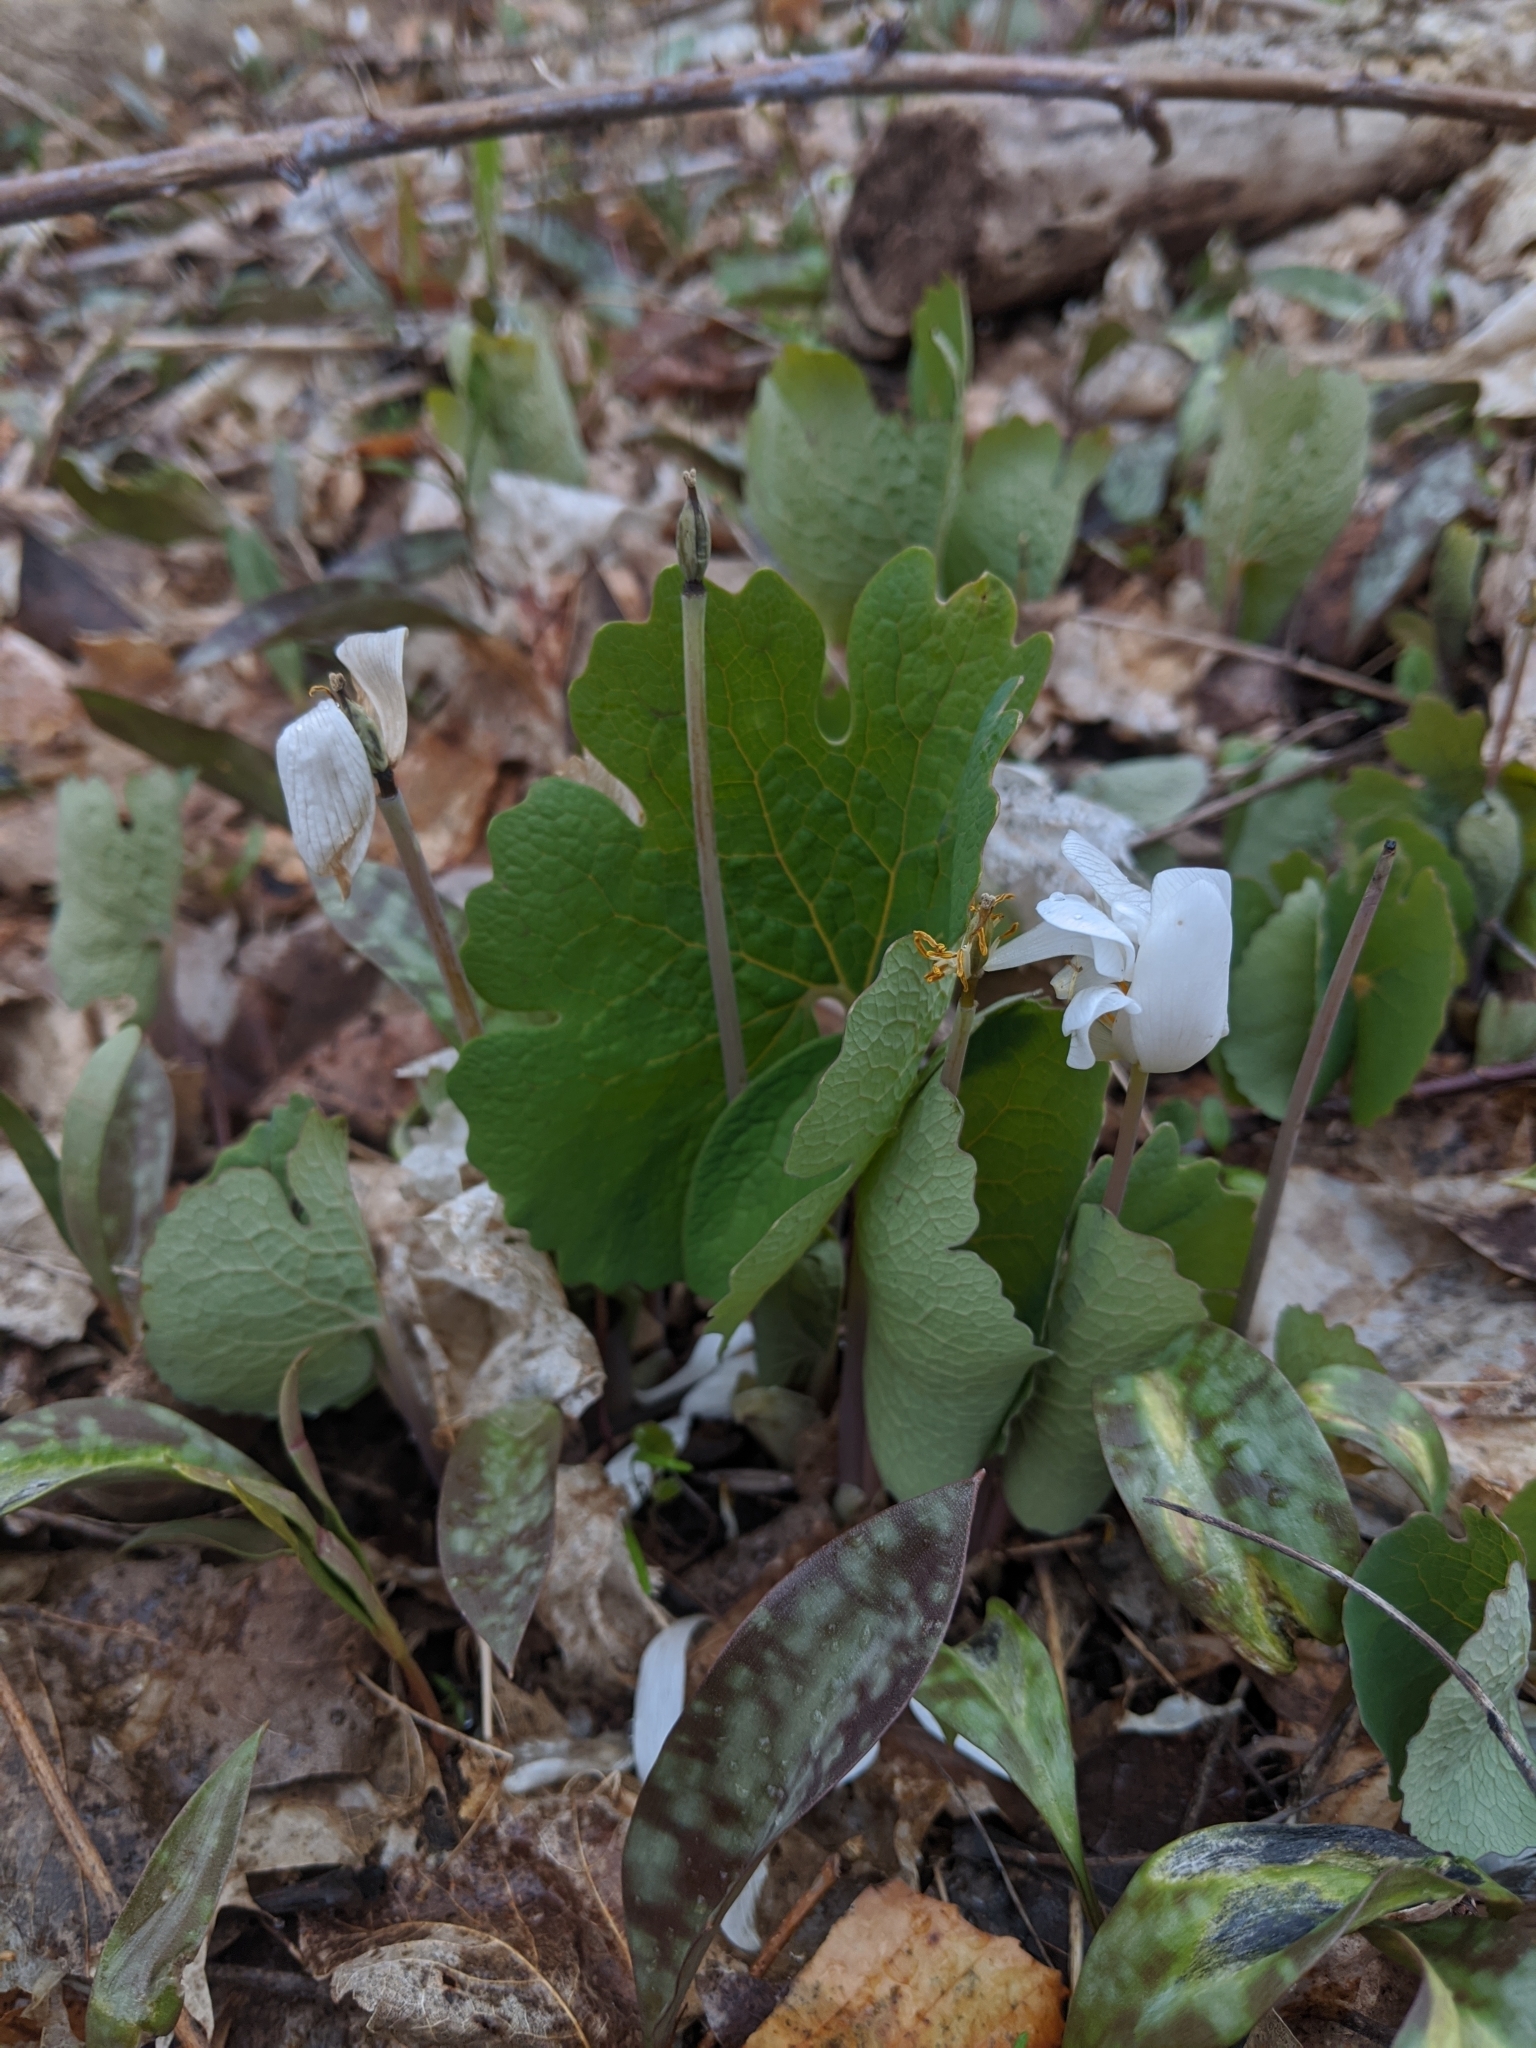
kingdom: Plantae
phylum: Tracheophyta
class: Magnoliopsida
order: Ranunculales
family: Papaveraceae
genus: Sanguinaria
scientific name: Sanguinaria canadensis
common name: Bloodroot
